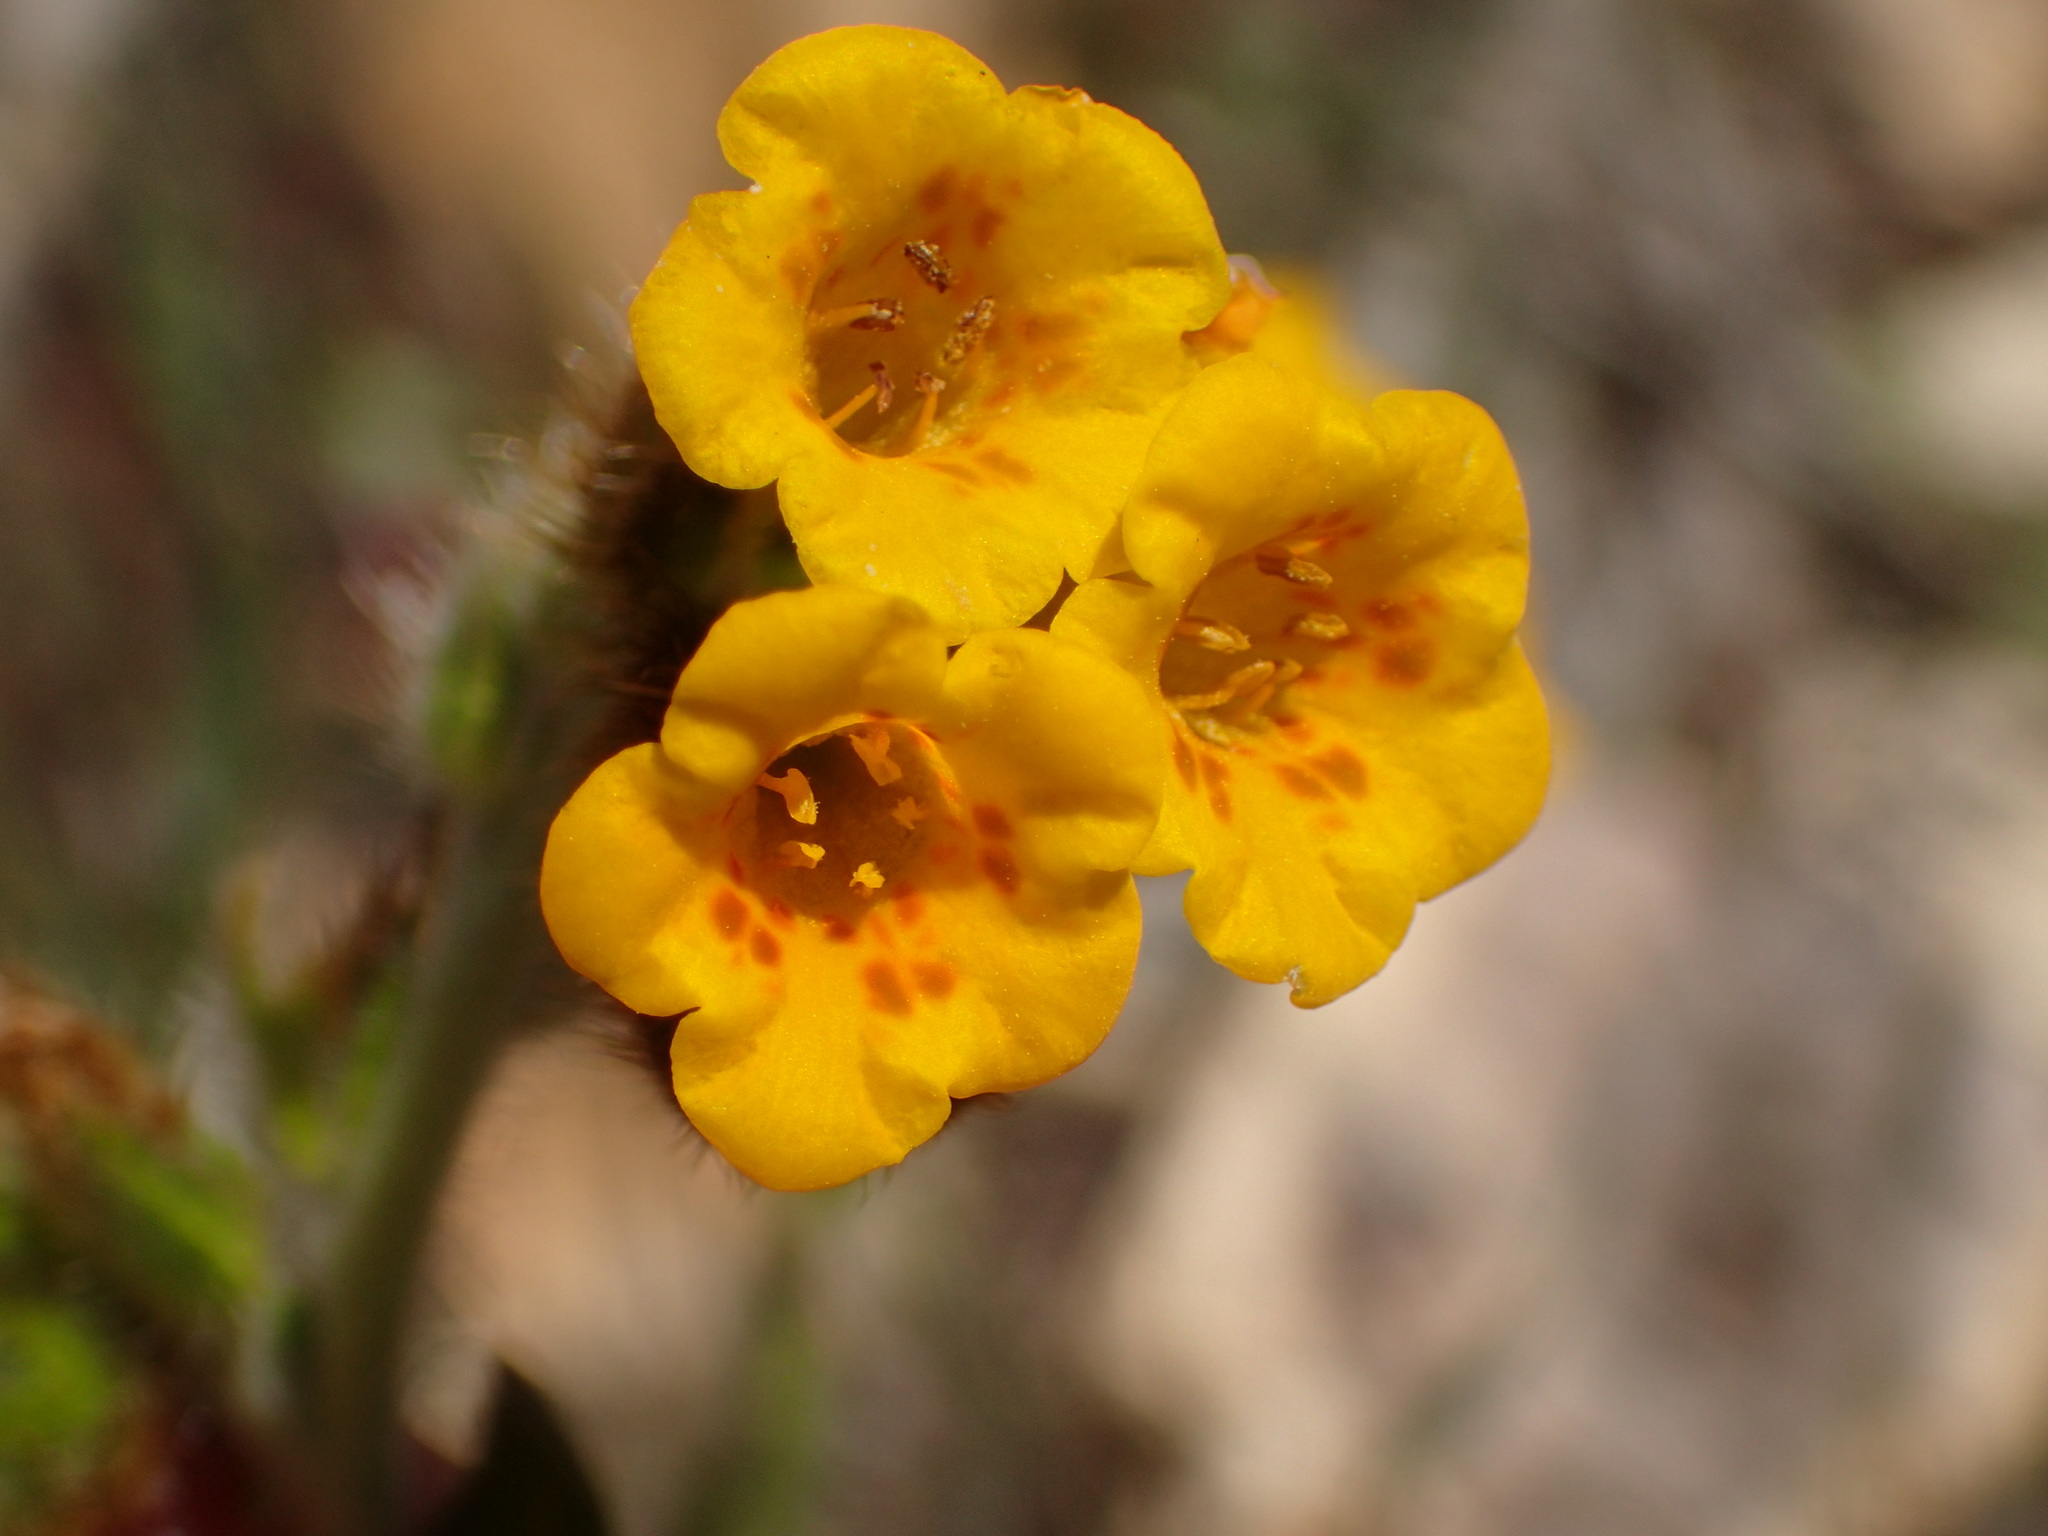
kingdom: Plantae
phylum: Tracheophyta
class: Magnoliopsida
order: Boraginales
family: Boraginaceae
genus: Amsinckia
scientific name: Amsinckia douglasiana
